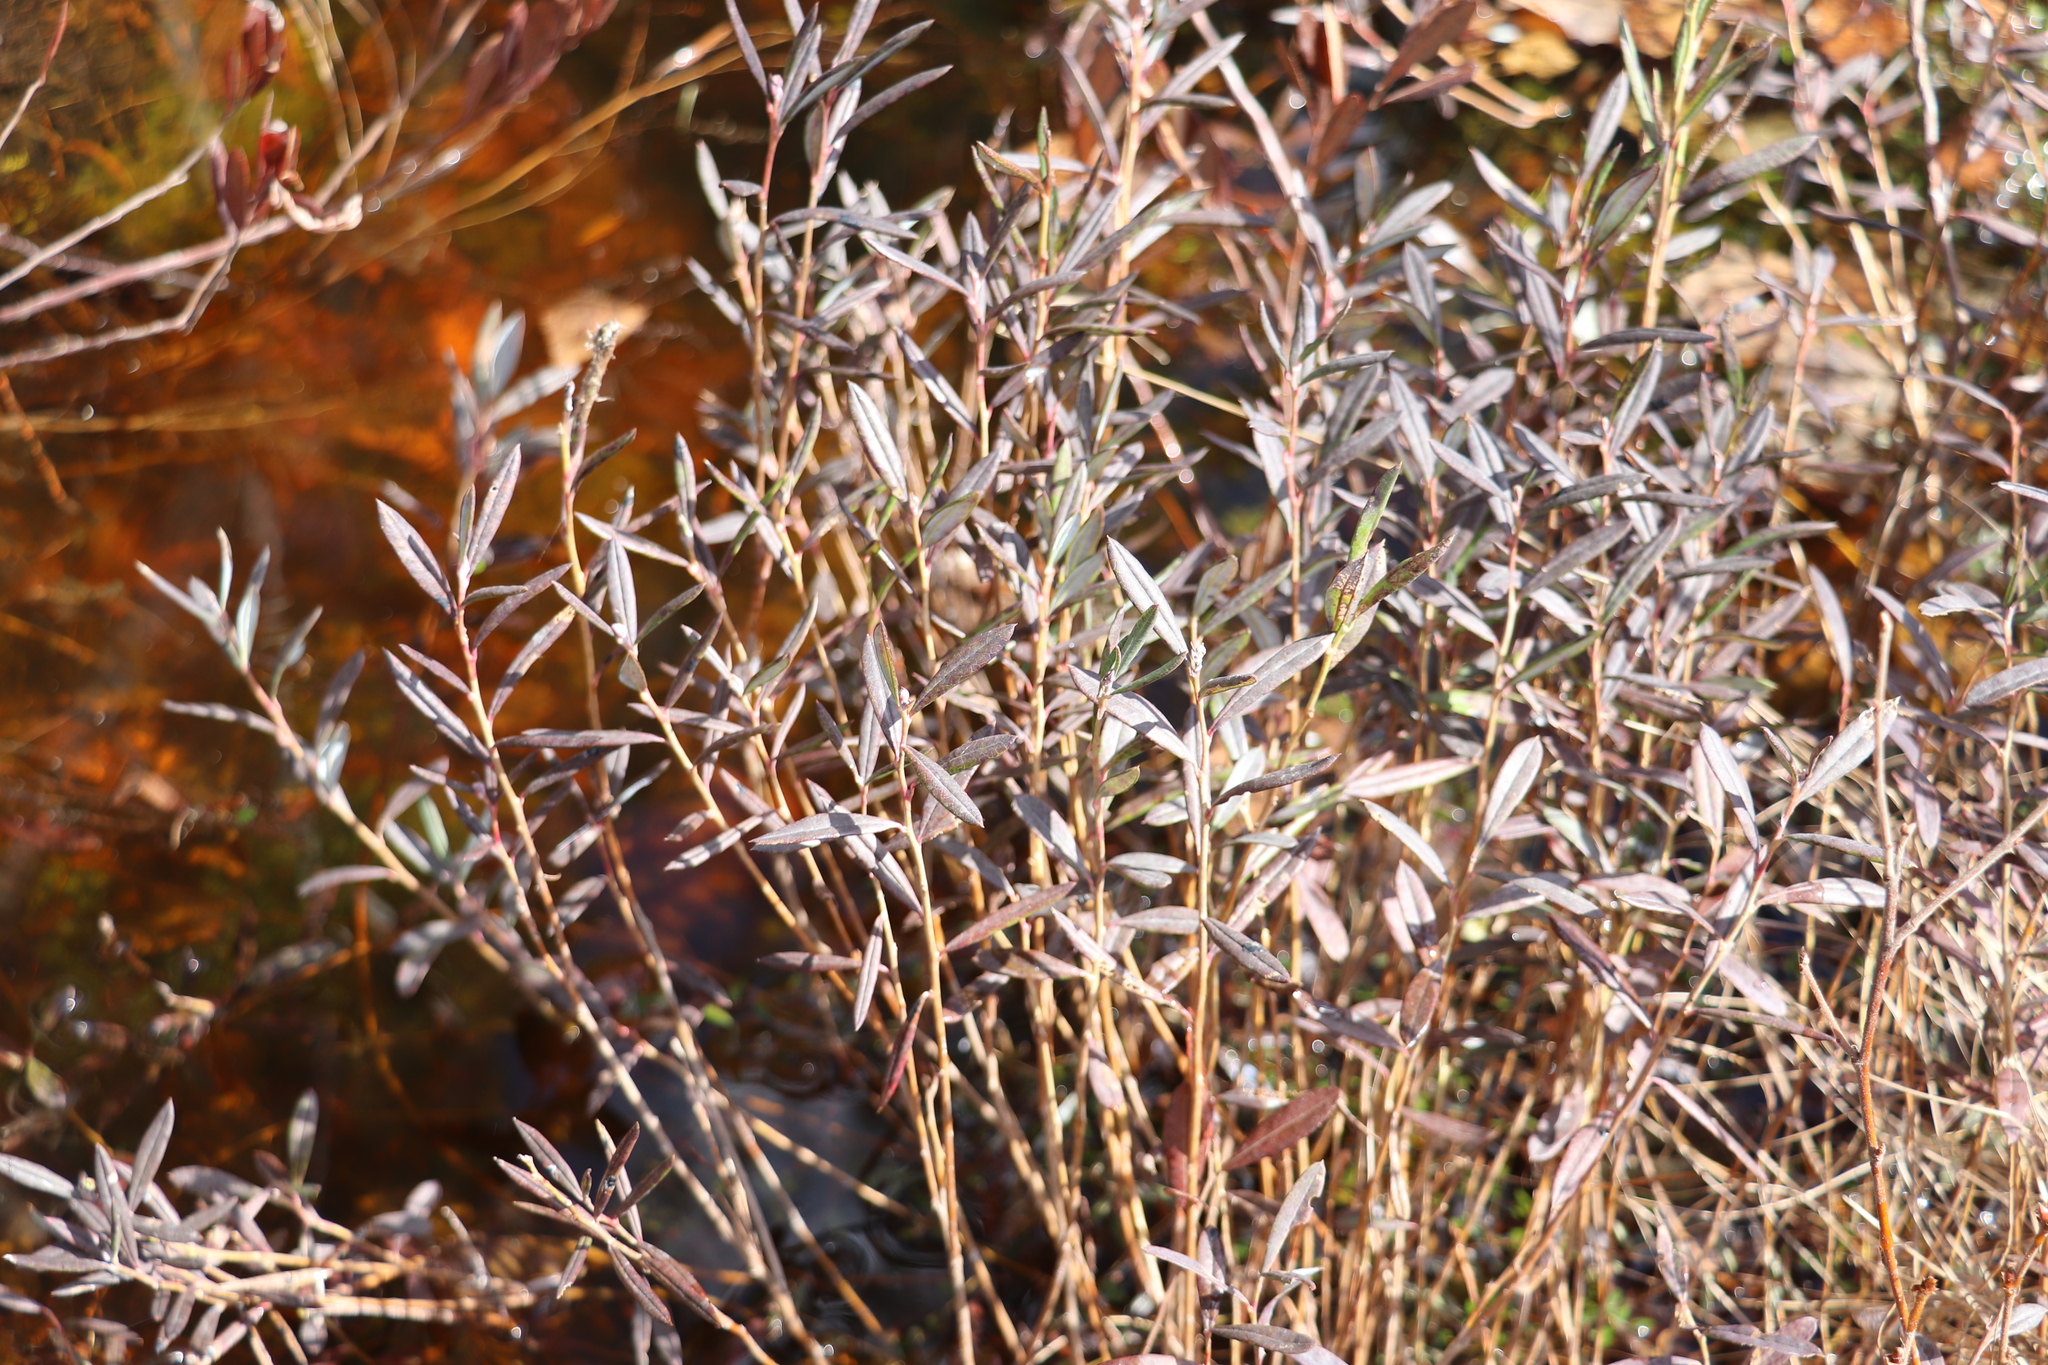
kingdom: Plantae
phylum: Tracheophyta
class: Magnoliopsida
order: Ericales
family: Ericaceae
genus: Andromeda
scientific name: Andromeda polifolia
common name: Bog-rosemary
